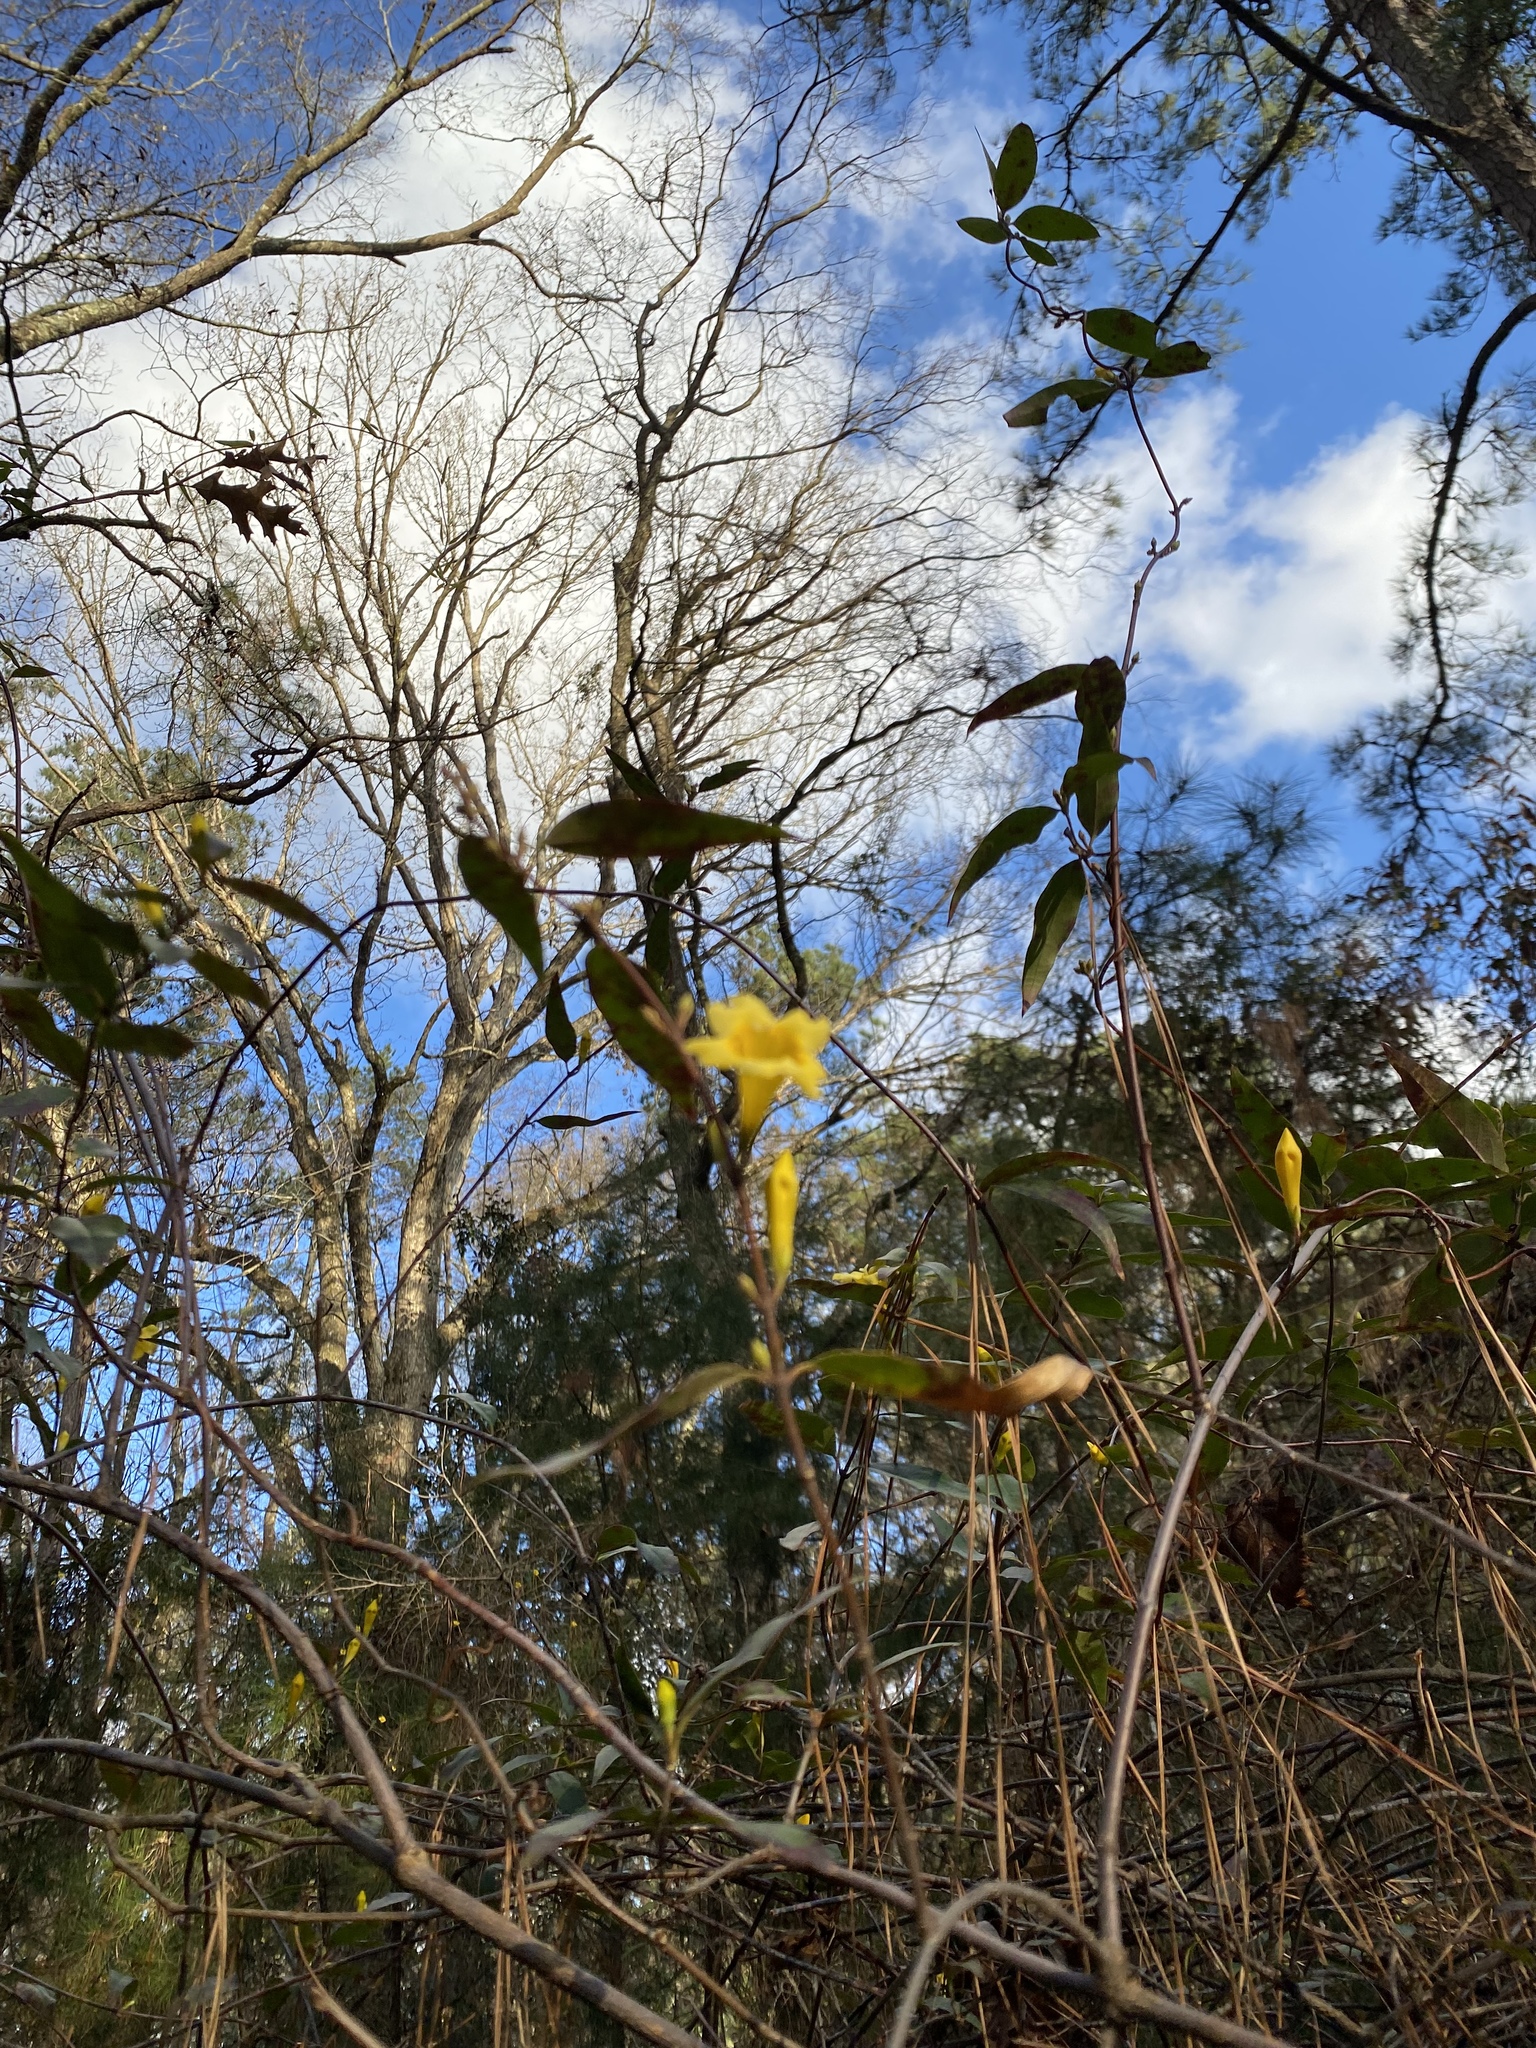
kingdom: Plantae
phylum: Tracheophyta
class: Magnoliopsida
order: Gentianales
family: Gelsemiaceae
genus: Gelsemium
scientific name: Gelsemium sempervirens
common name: Carolina-jasmine
